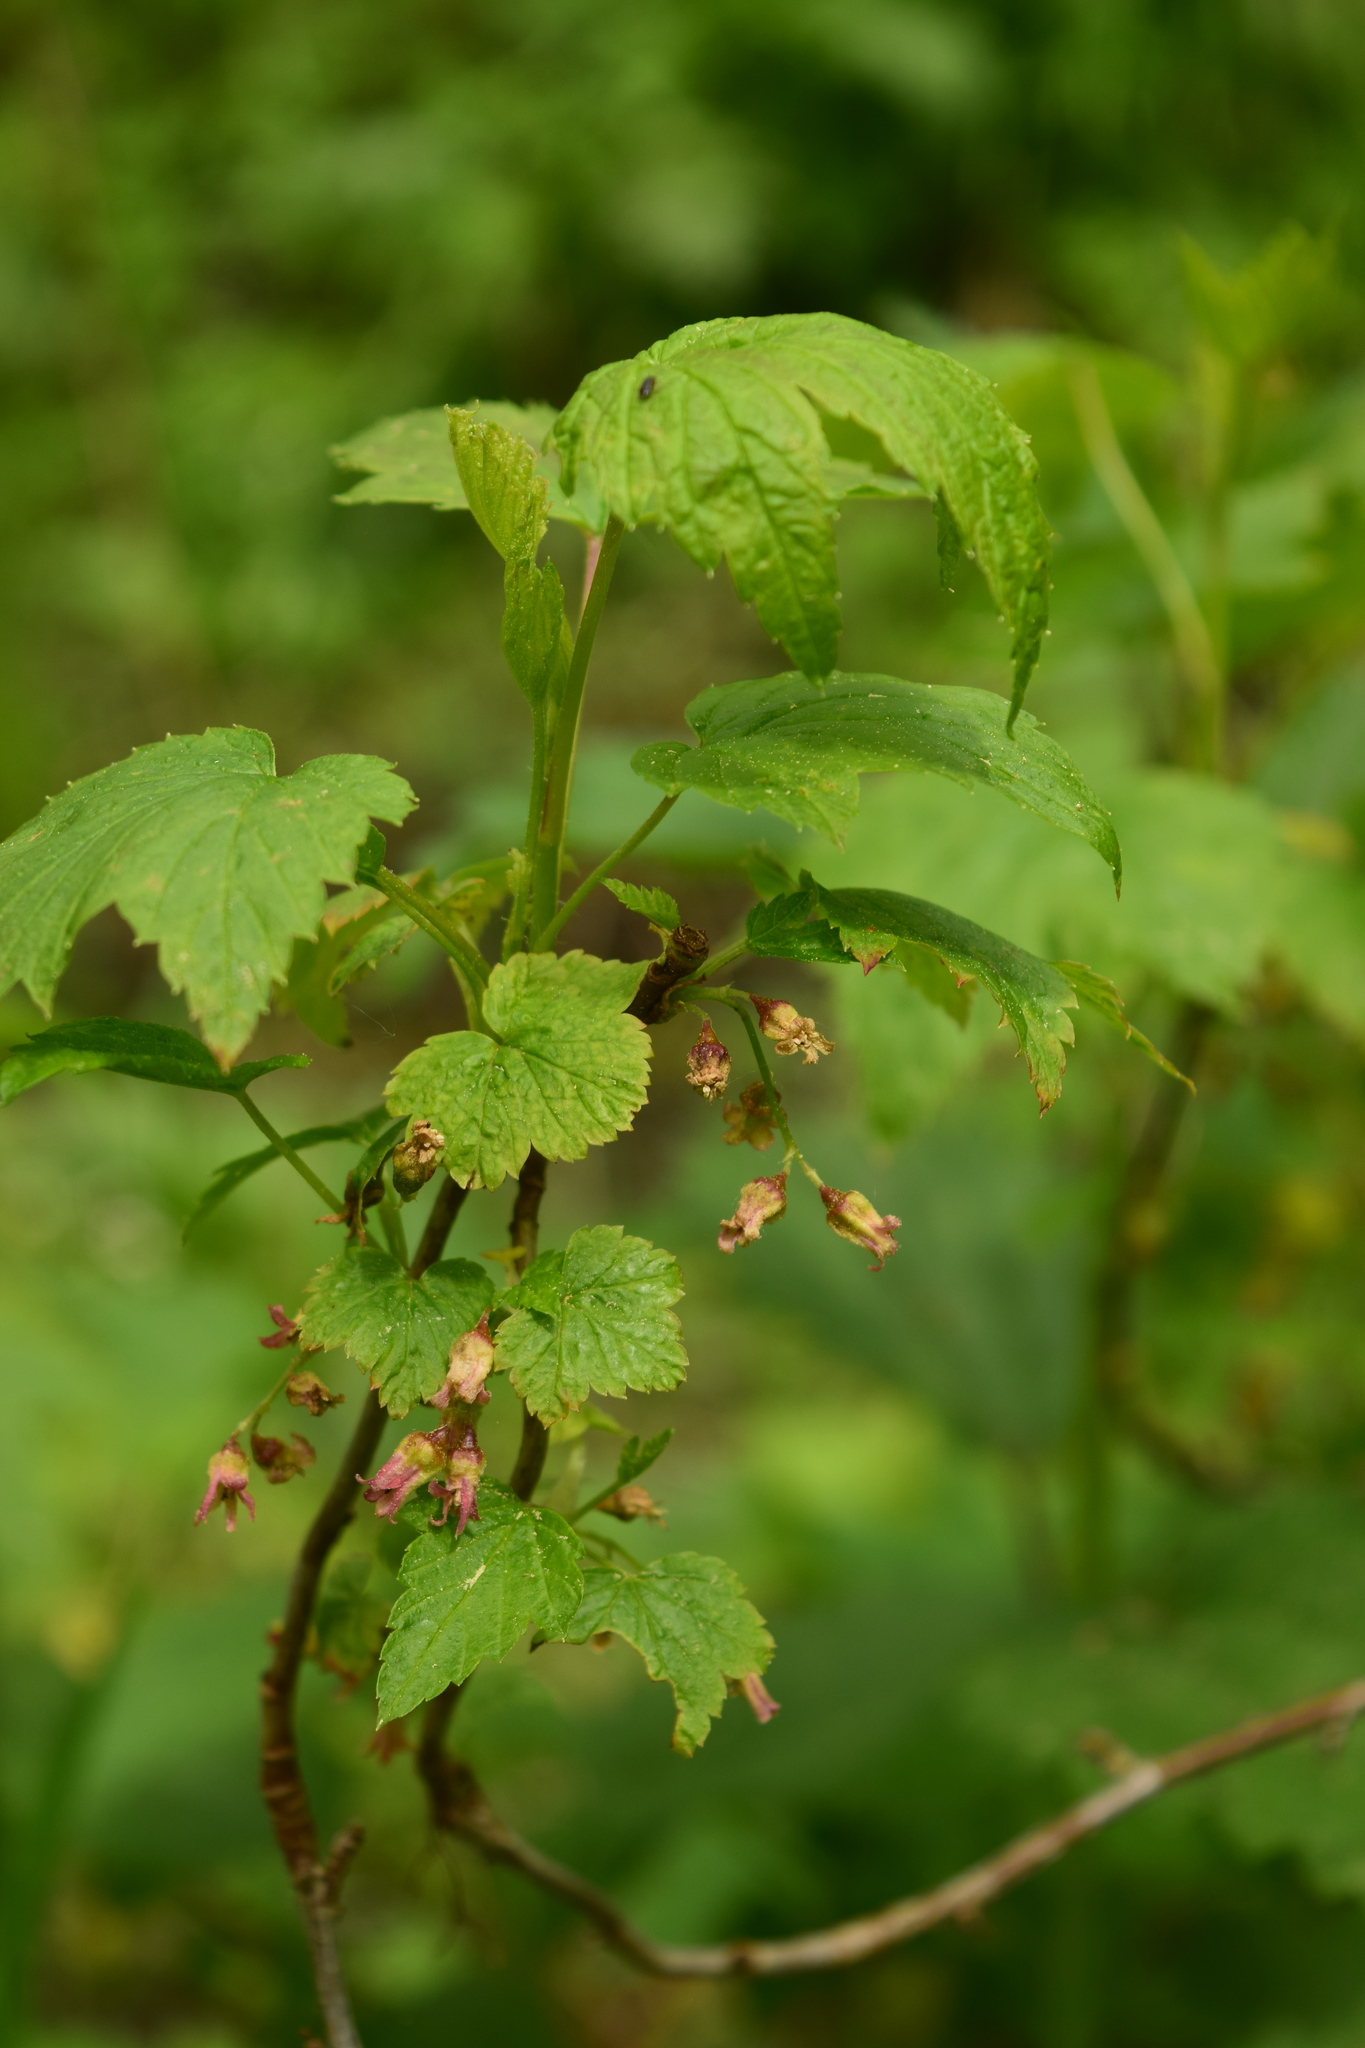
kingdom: Plantae
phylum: Tracheophyta
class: Magnoliopsida
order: Saxifragales
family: Grossulariaceae
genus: Ribes
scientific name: Ribes nigrum
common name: Black currant
